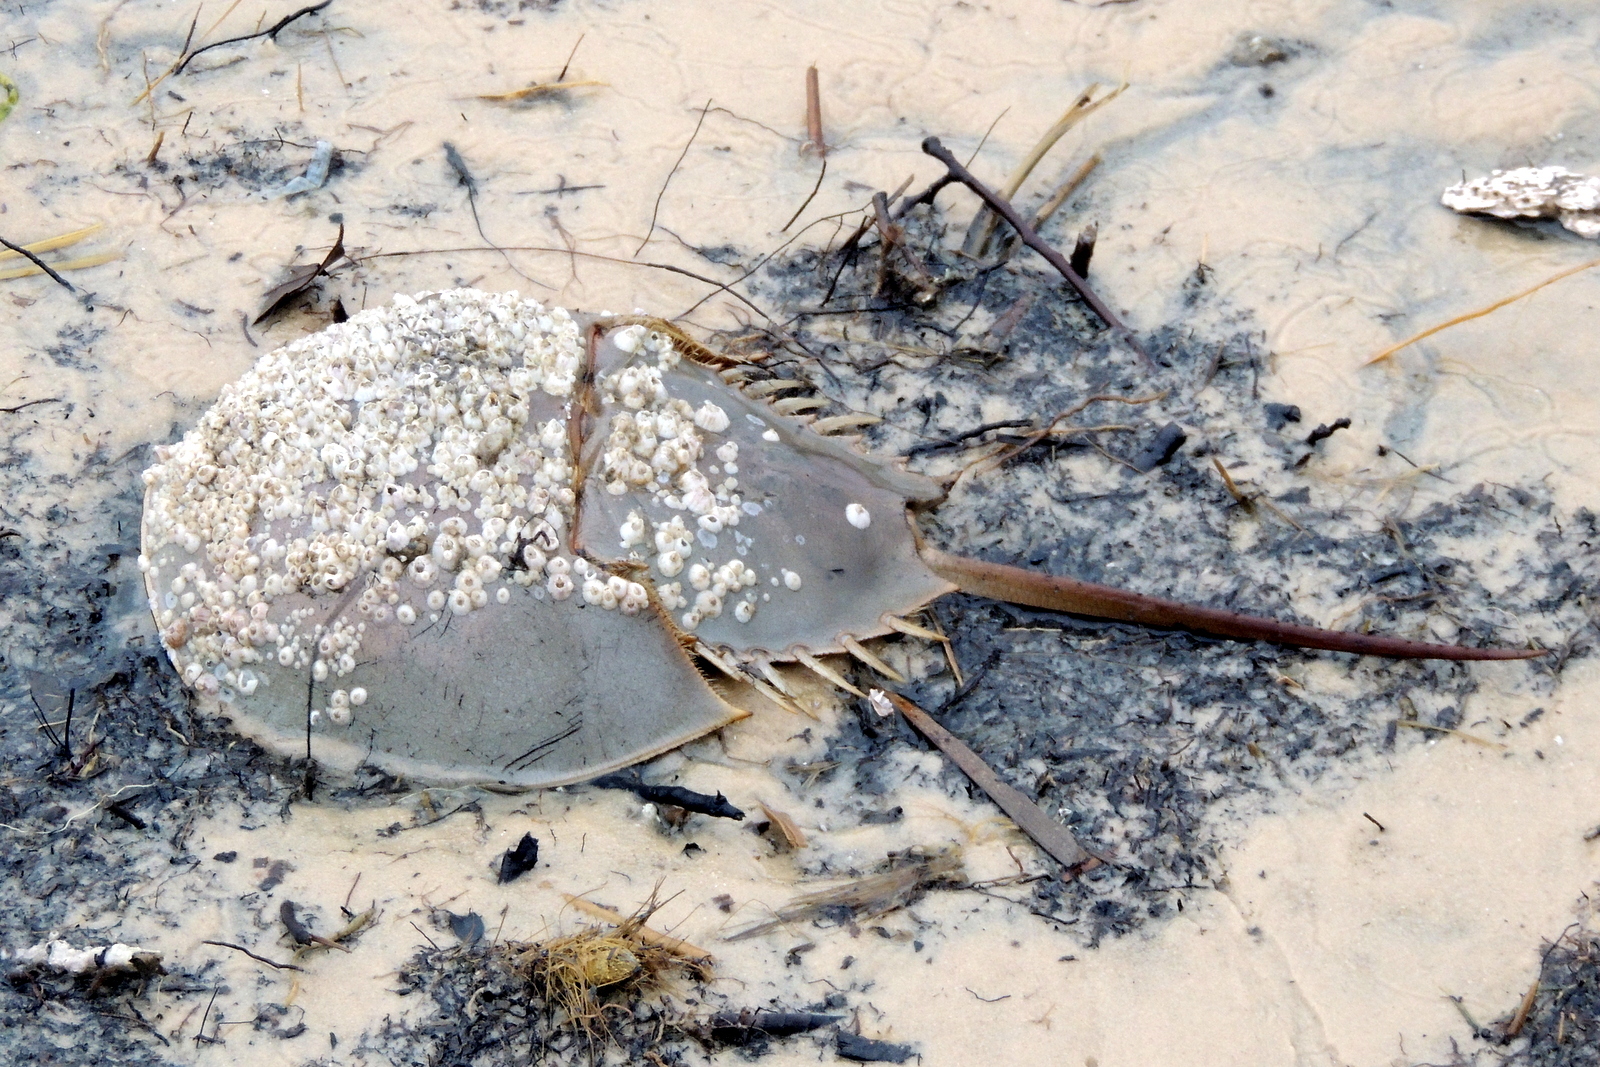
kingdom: Animalia
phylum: Arthropoda
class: Merostomata
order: Xiphosurida
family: Limulidae
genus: Limulus
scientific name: Limulus polyphemus
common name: Horseshoe crab
